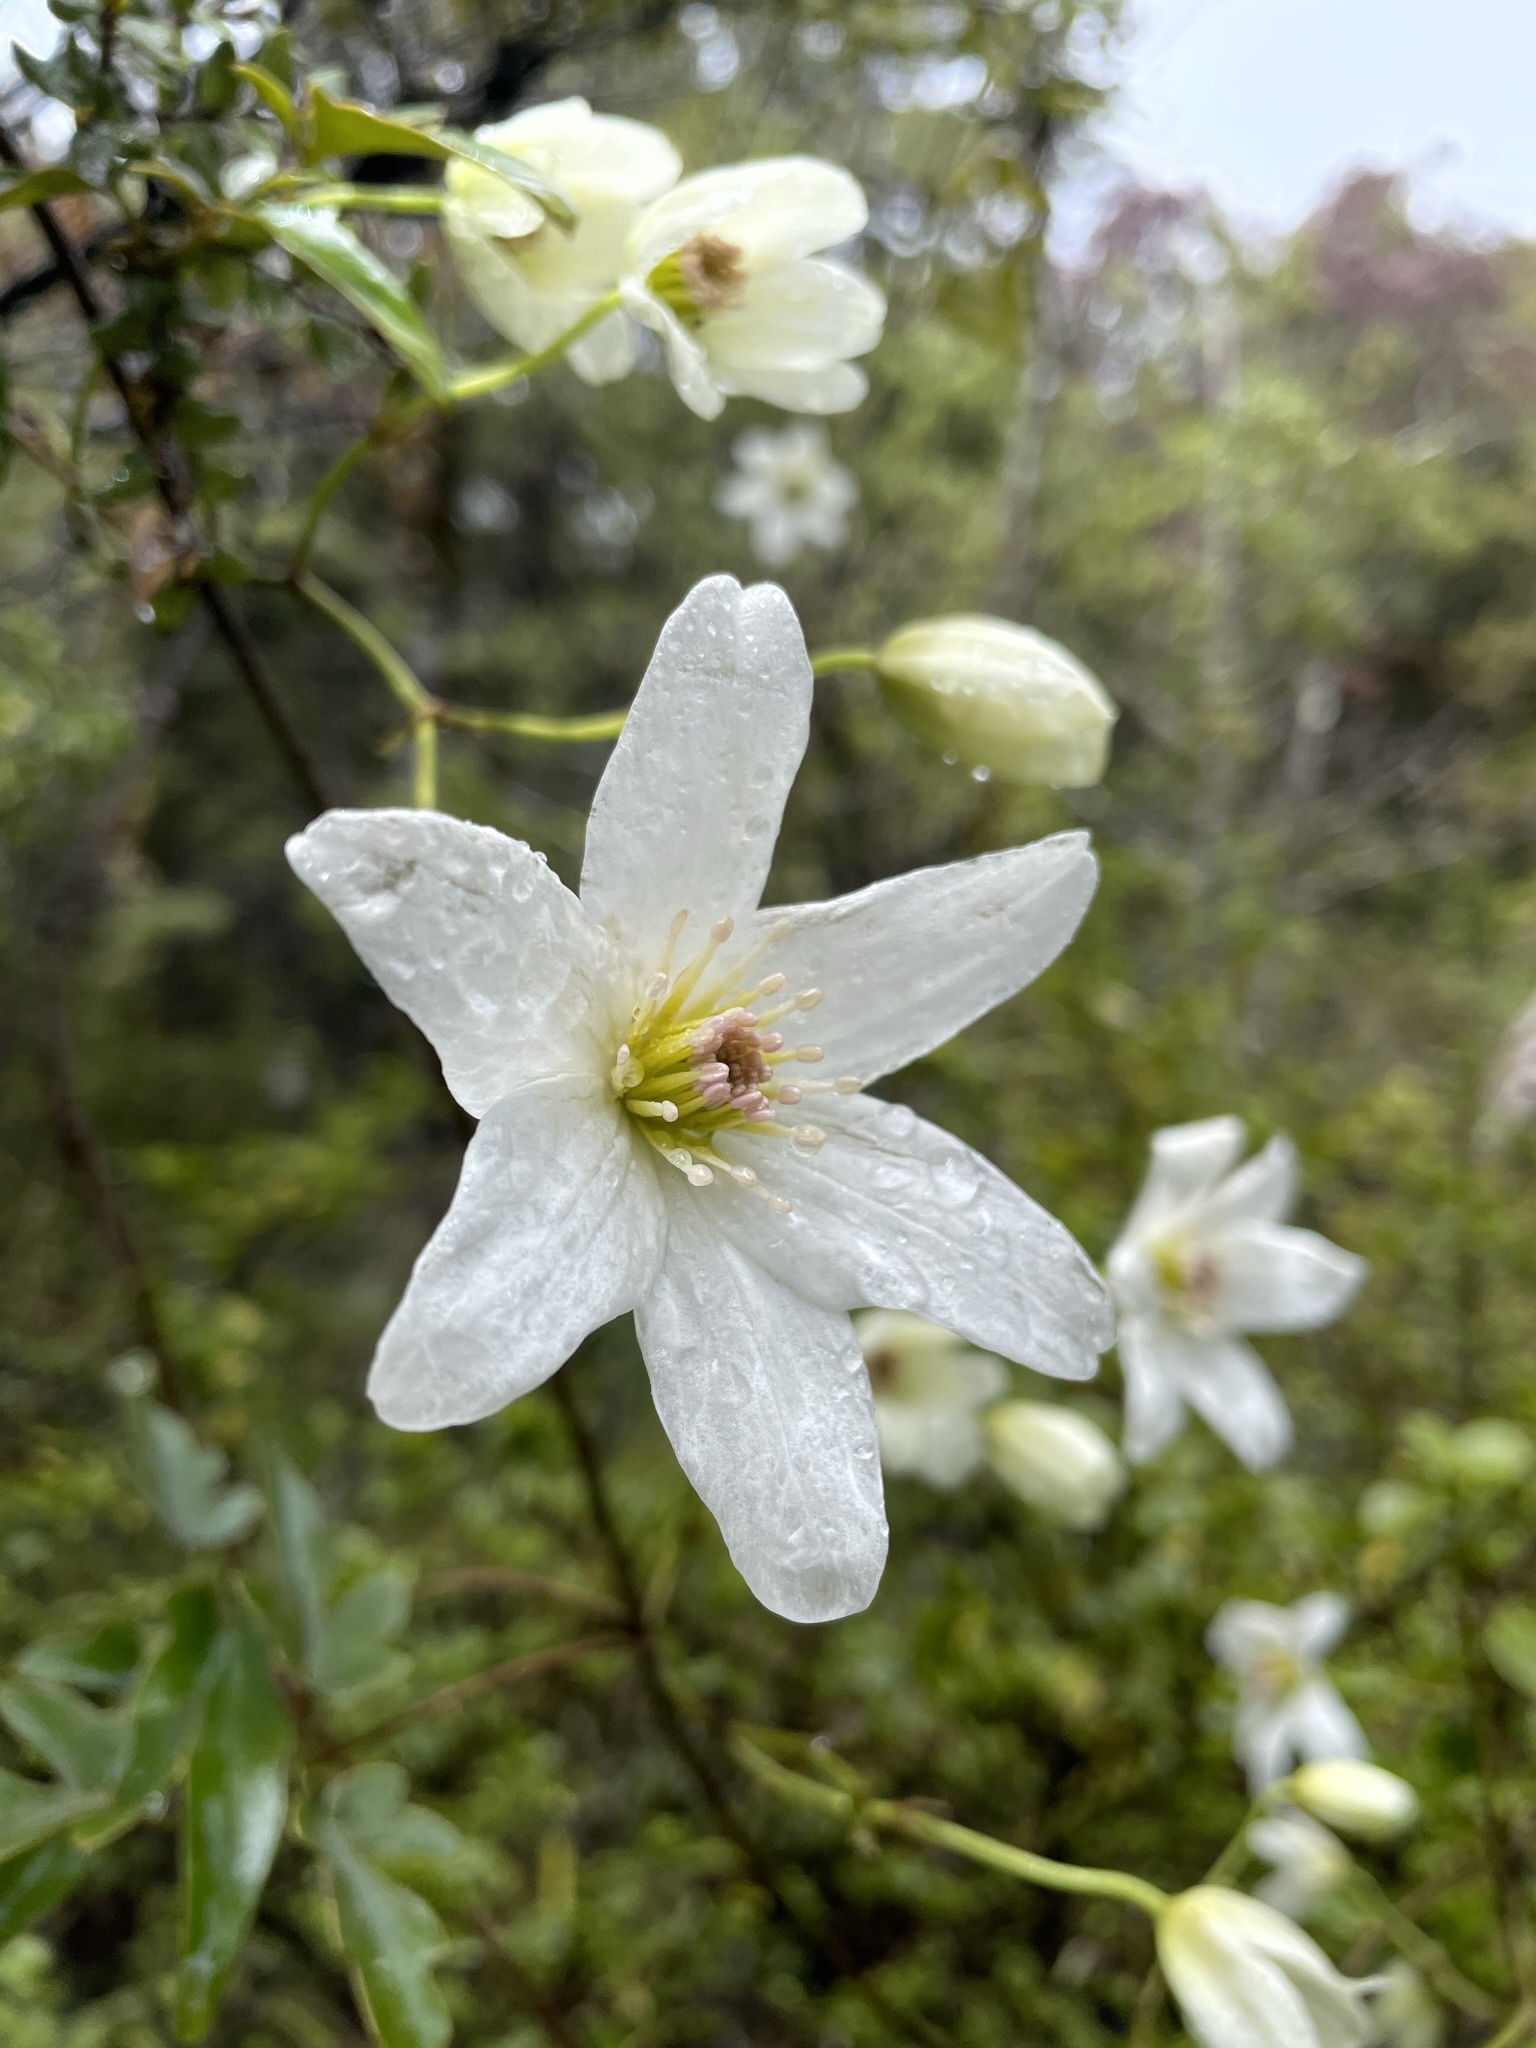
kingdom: Plantae
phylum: Tracheophyta
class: Magnoliopsida
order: Ranunculales
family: Ranunculaceae
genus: Clematis
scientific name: Clematis paniculata
